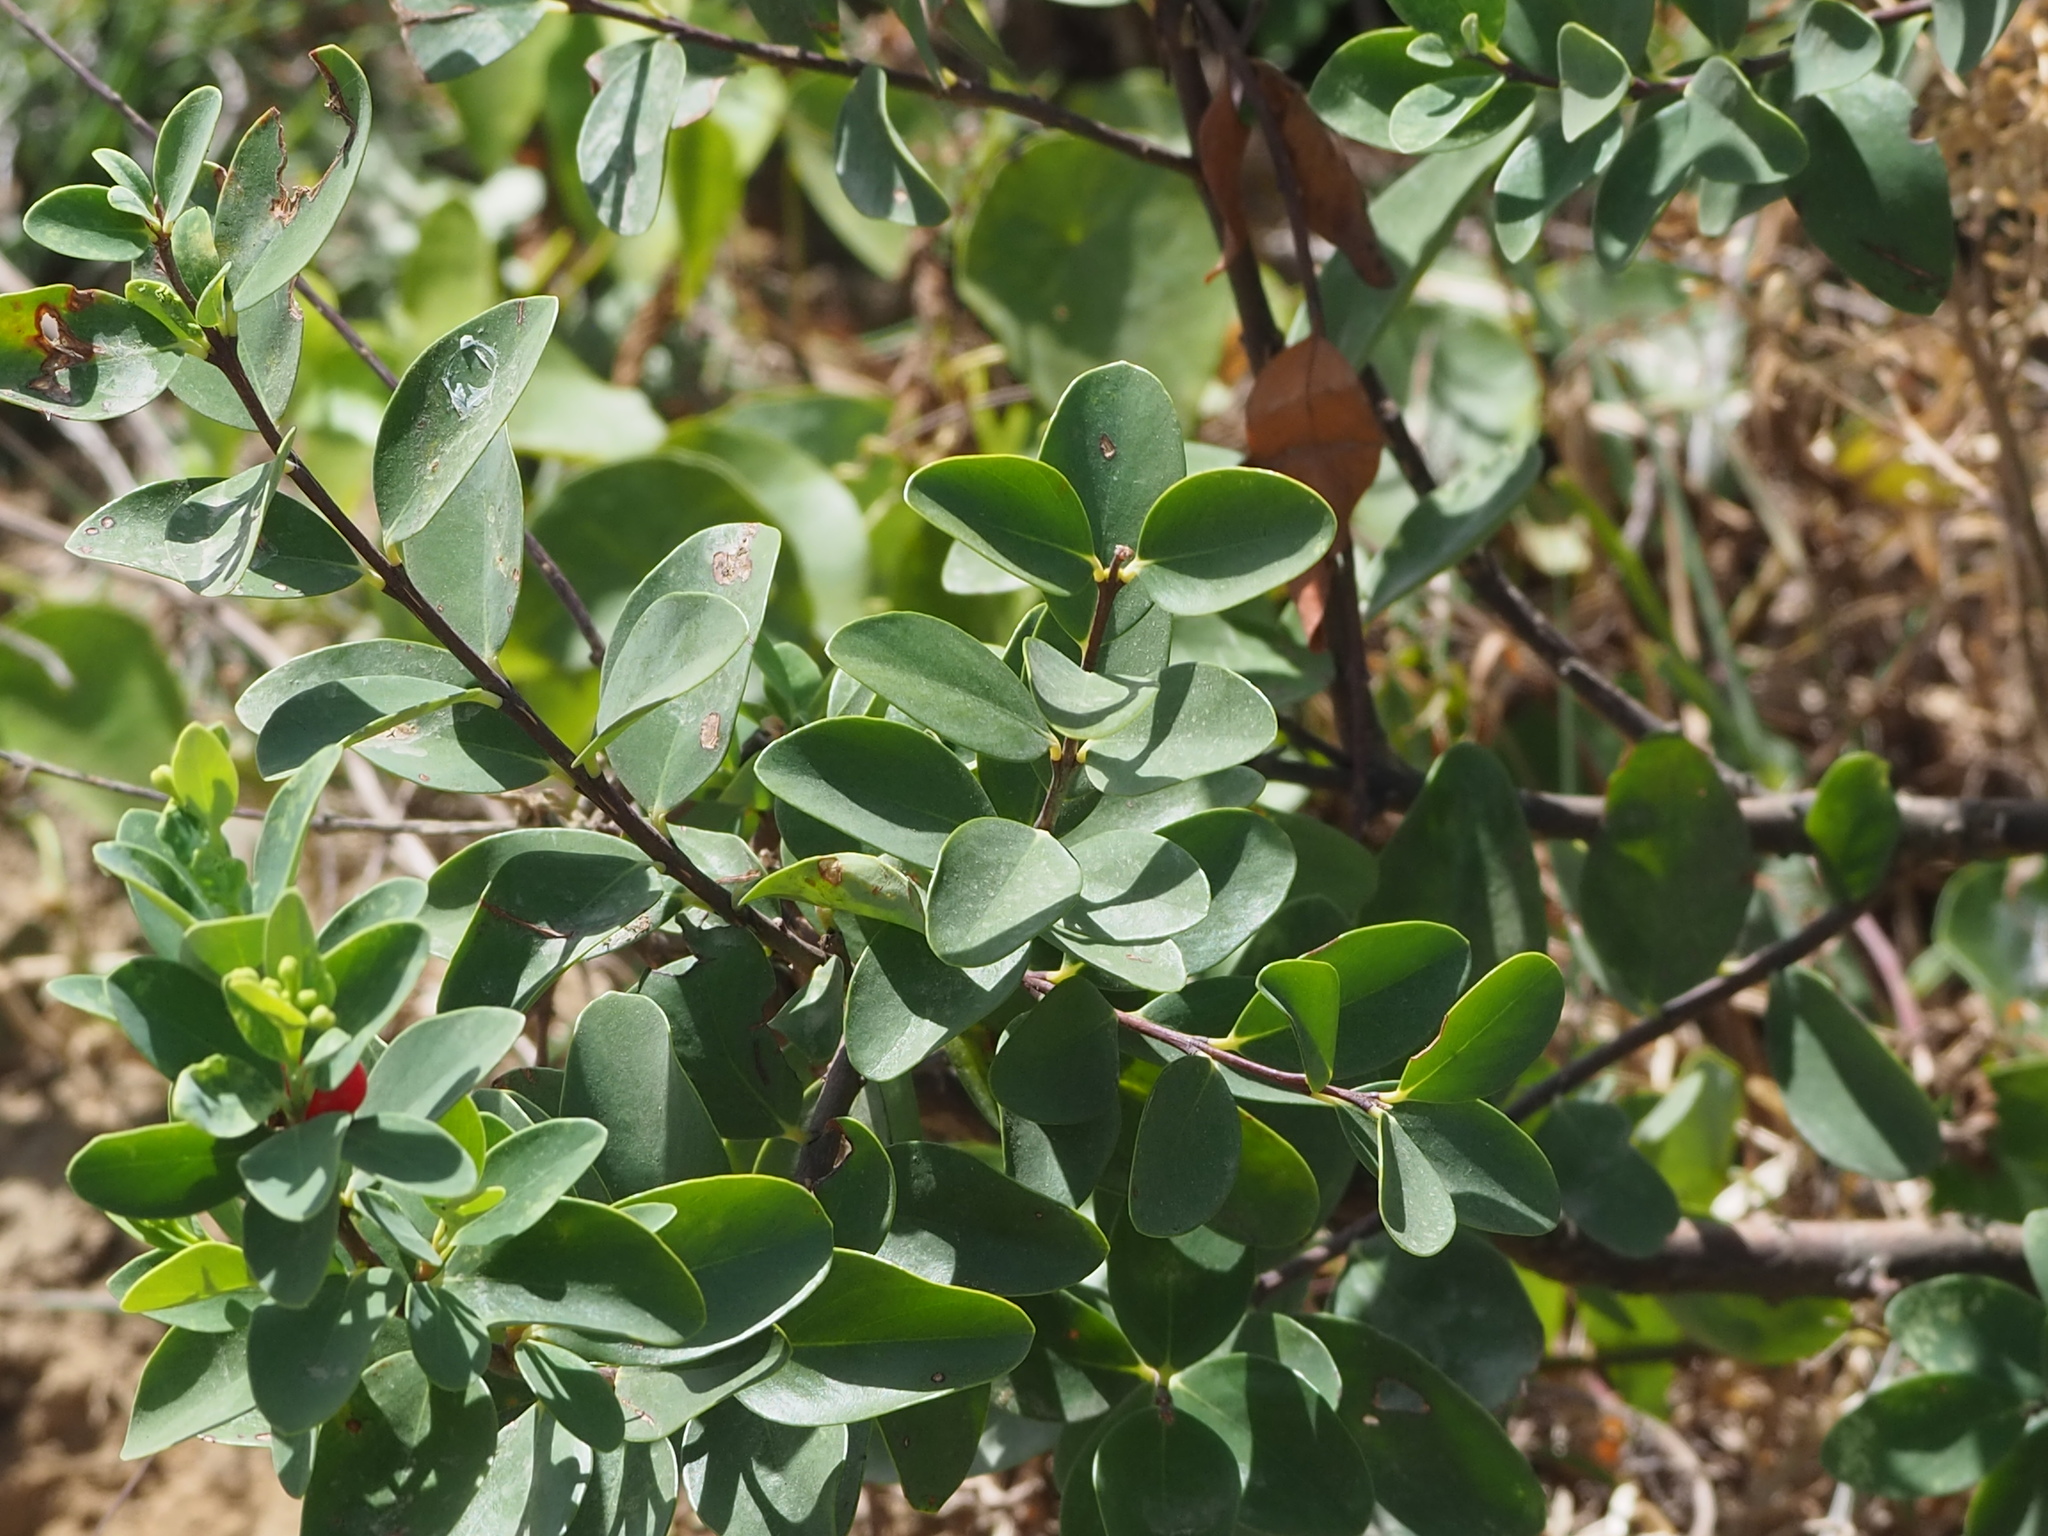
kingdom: Plantae
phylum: Tracheophyta
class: Magnoliopsida
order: Malvales
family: Thymelaeaceae
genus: Wikstroemia
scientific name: Wikstroemia indica
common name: Tiebush
